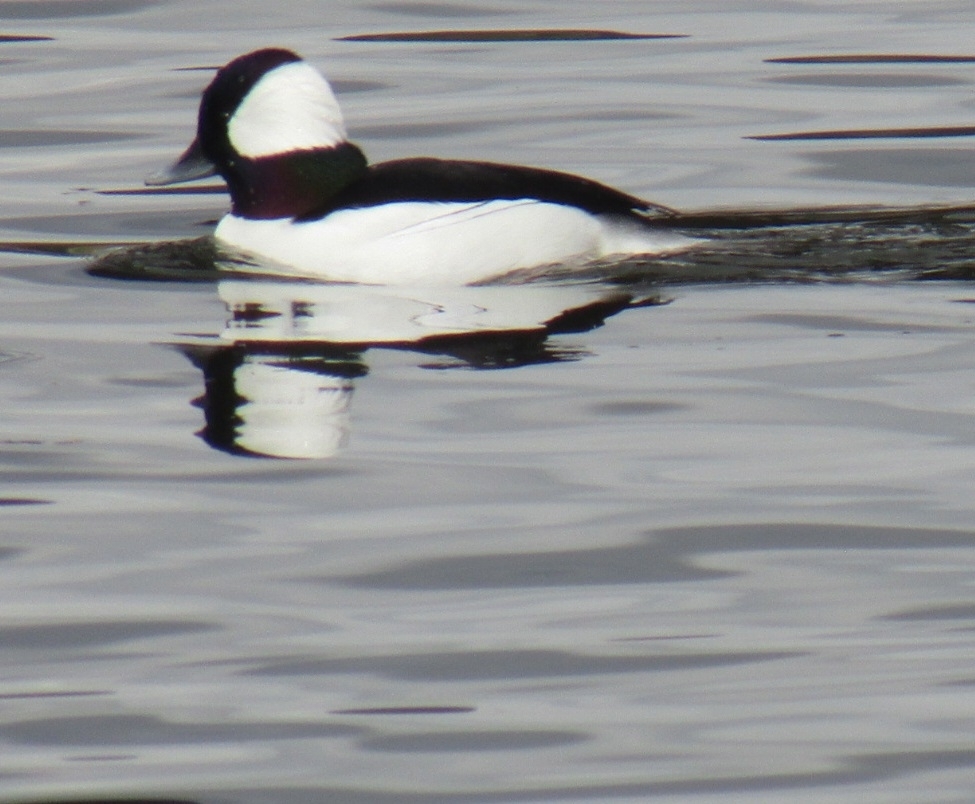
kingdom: Animalia
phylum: Chordata
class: Aves
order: Anseriformes
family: Anatidae
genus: Bucephala
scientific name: Bucephala albeola
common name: Bufflehead
